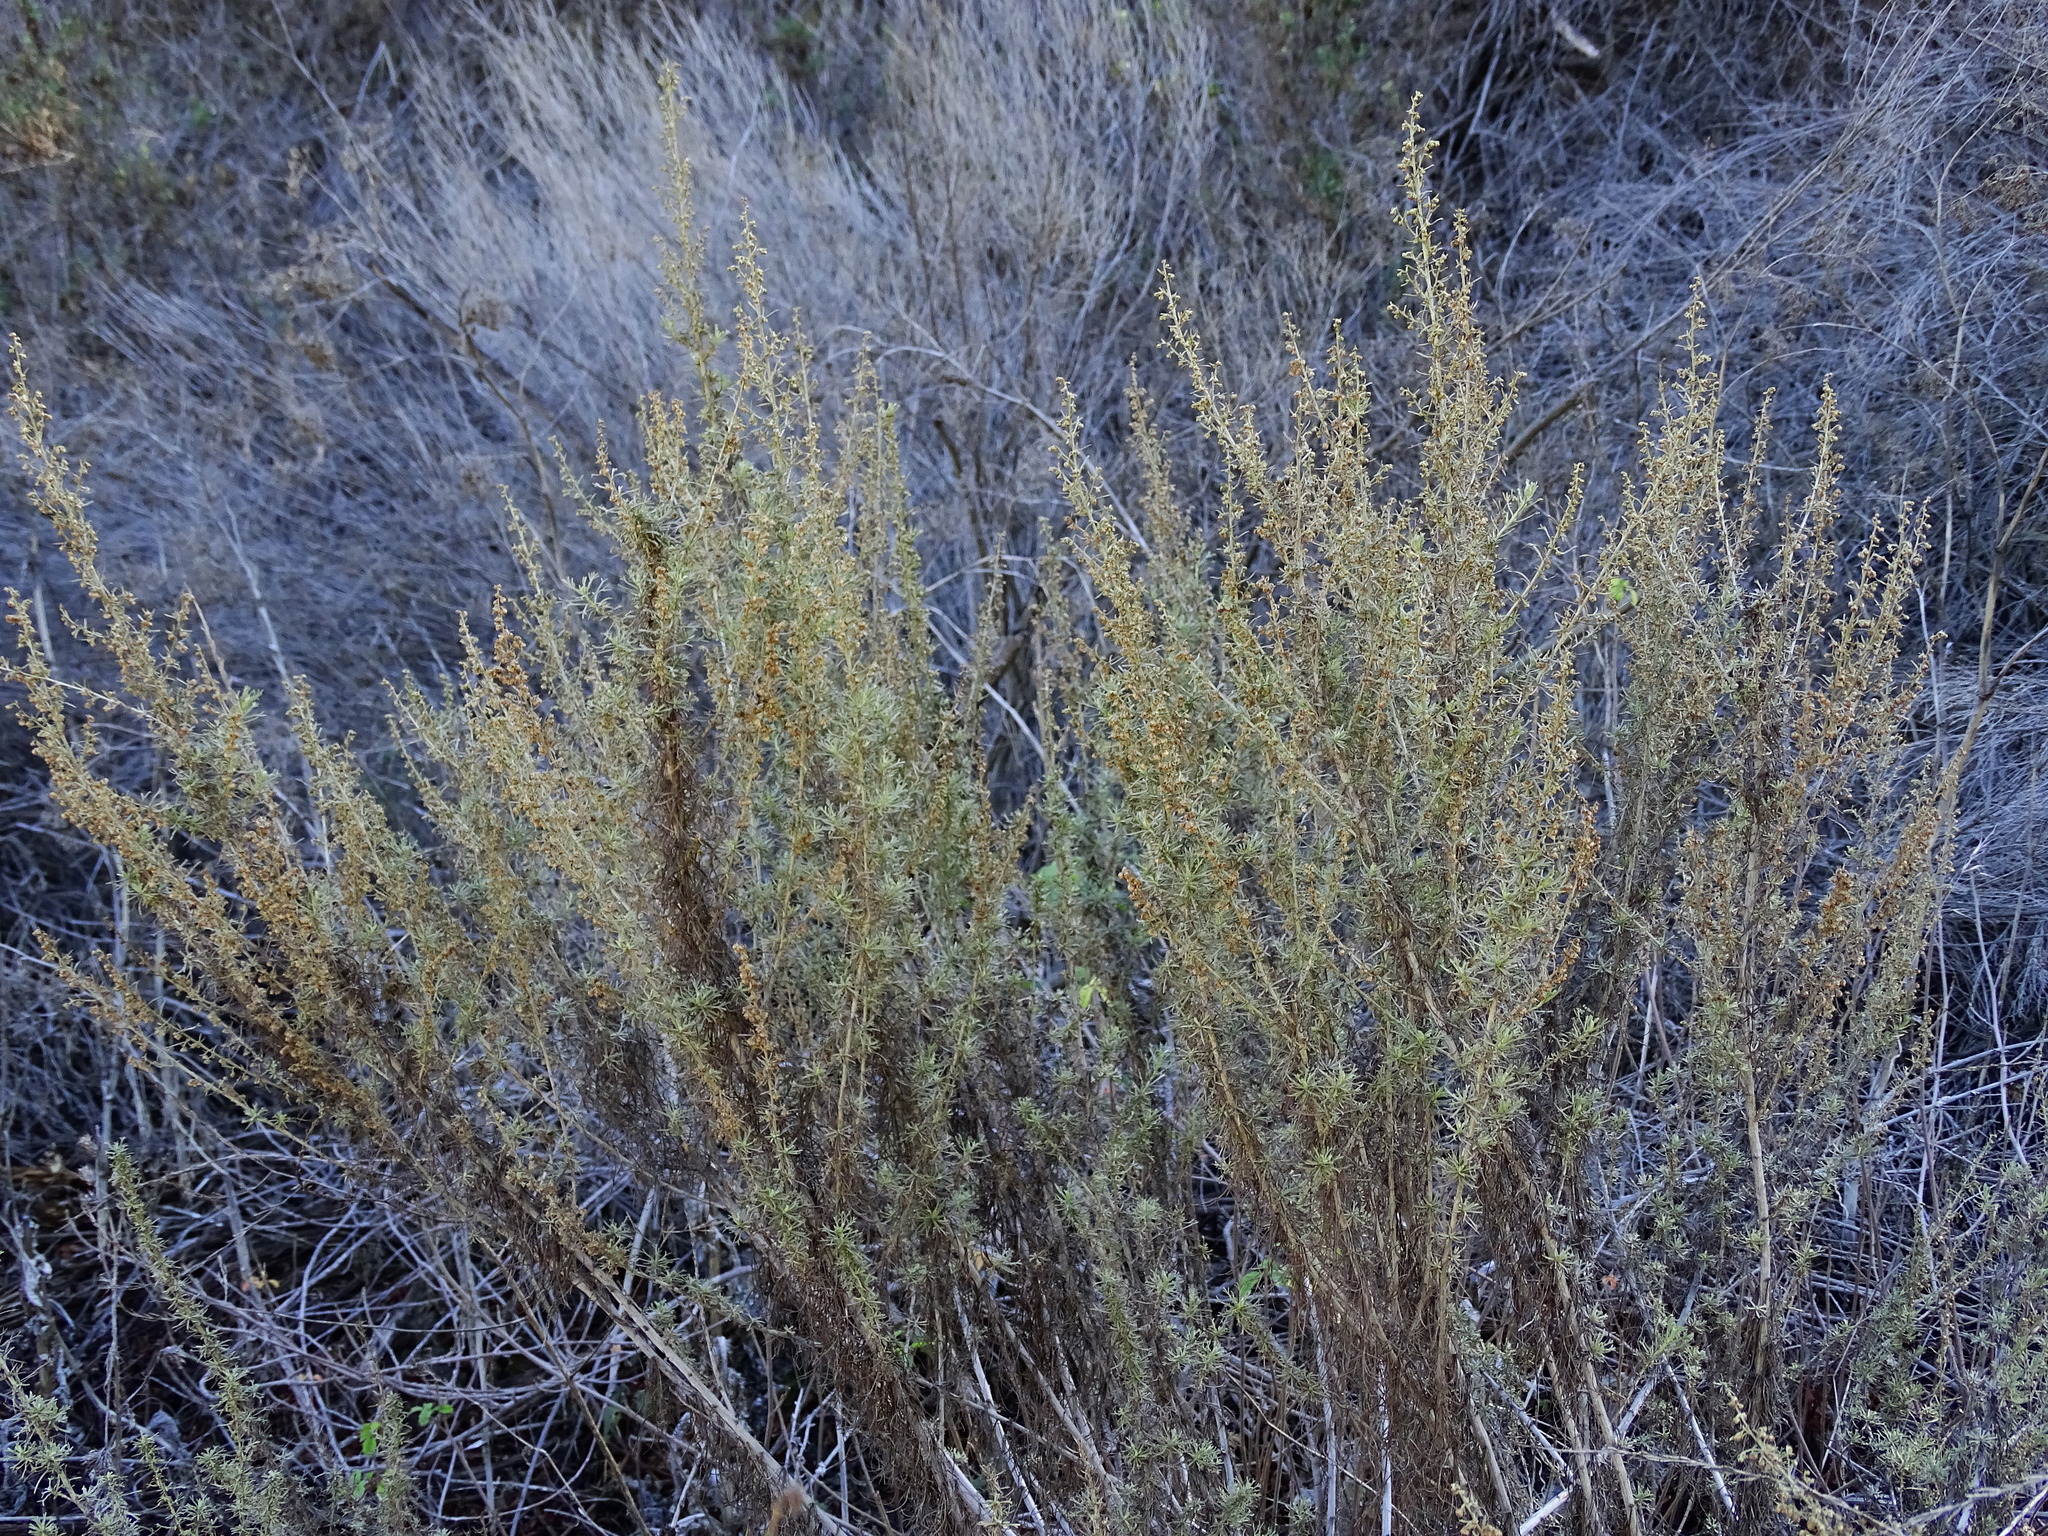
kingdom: Plantae
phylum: Tracheophyta
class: Magnoliopsida
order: Asterales
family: Asteraceae
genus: Artemisia
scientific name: Artemisia californica
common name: California sagebrush
